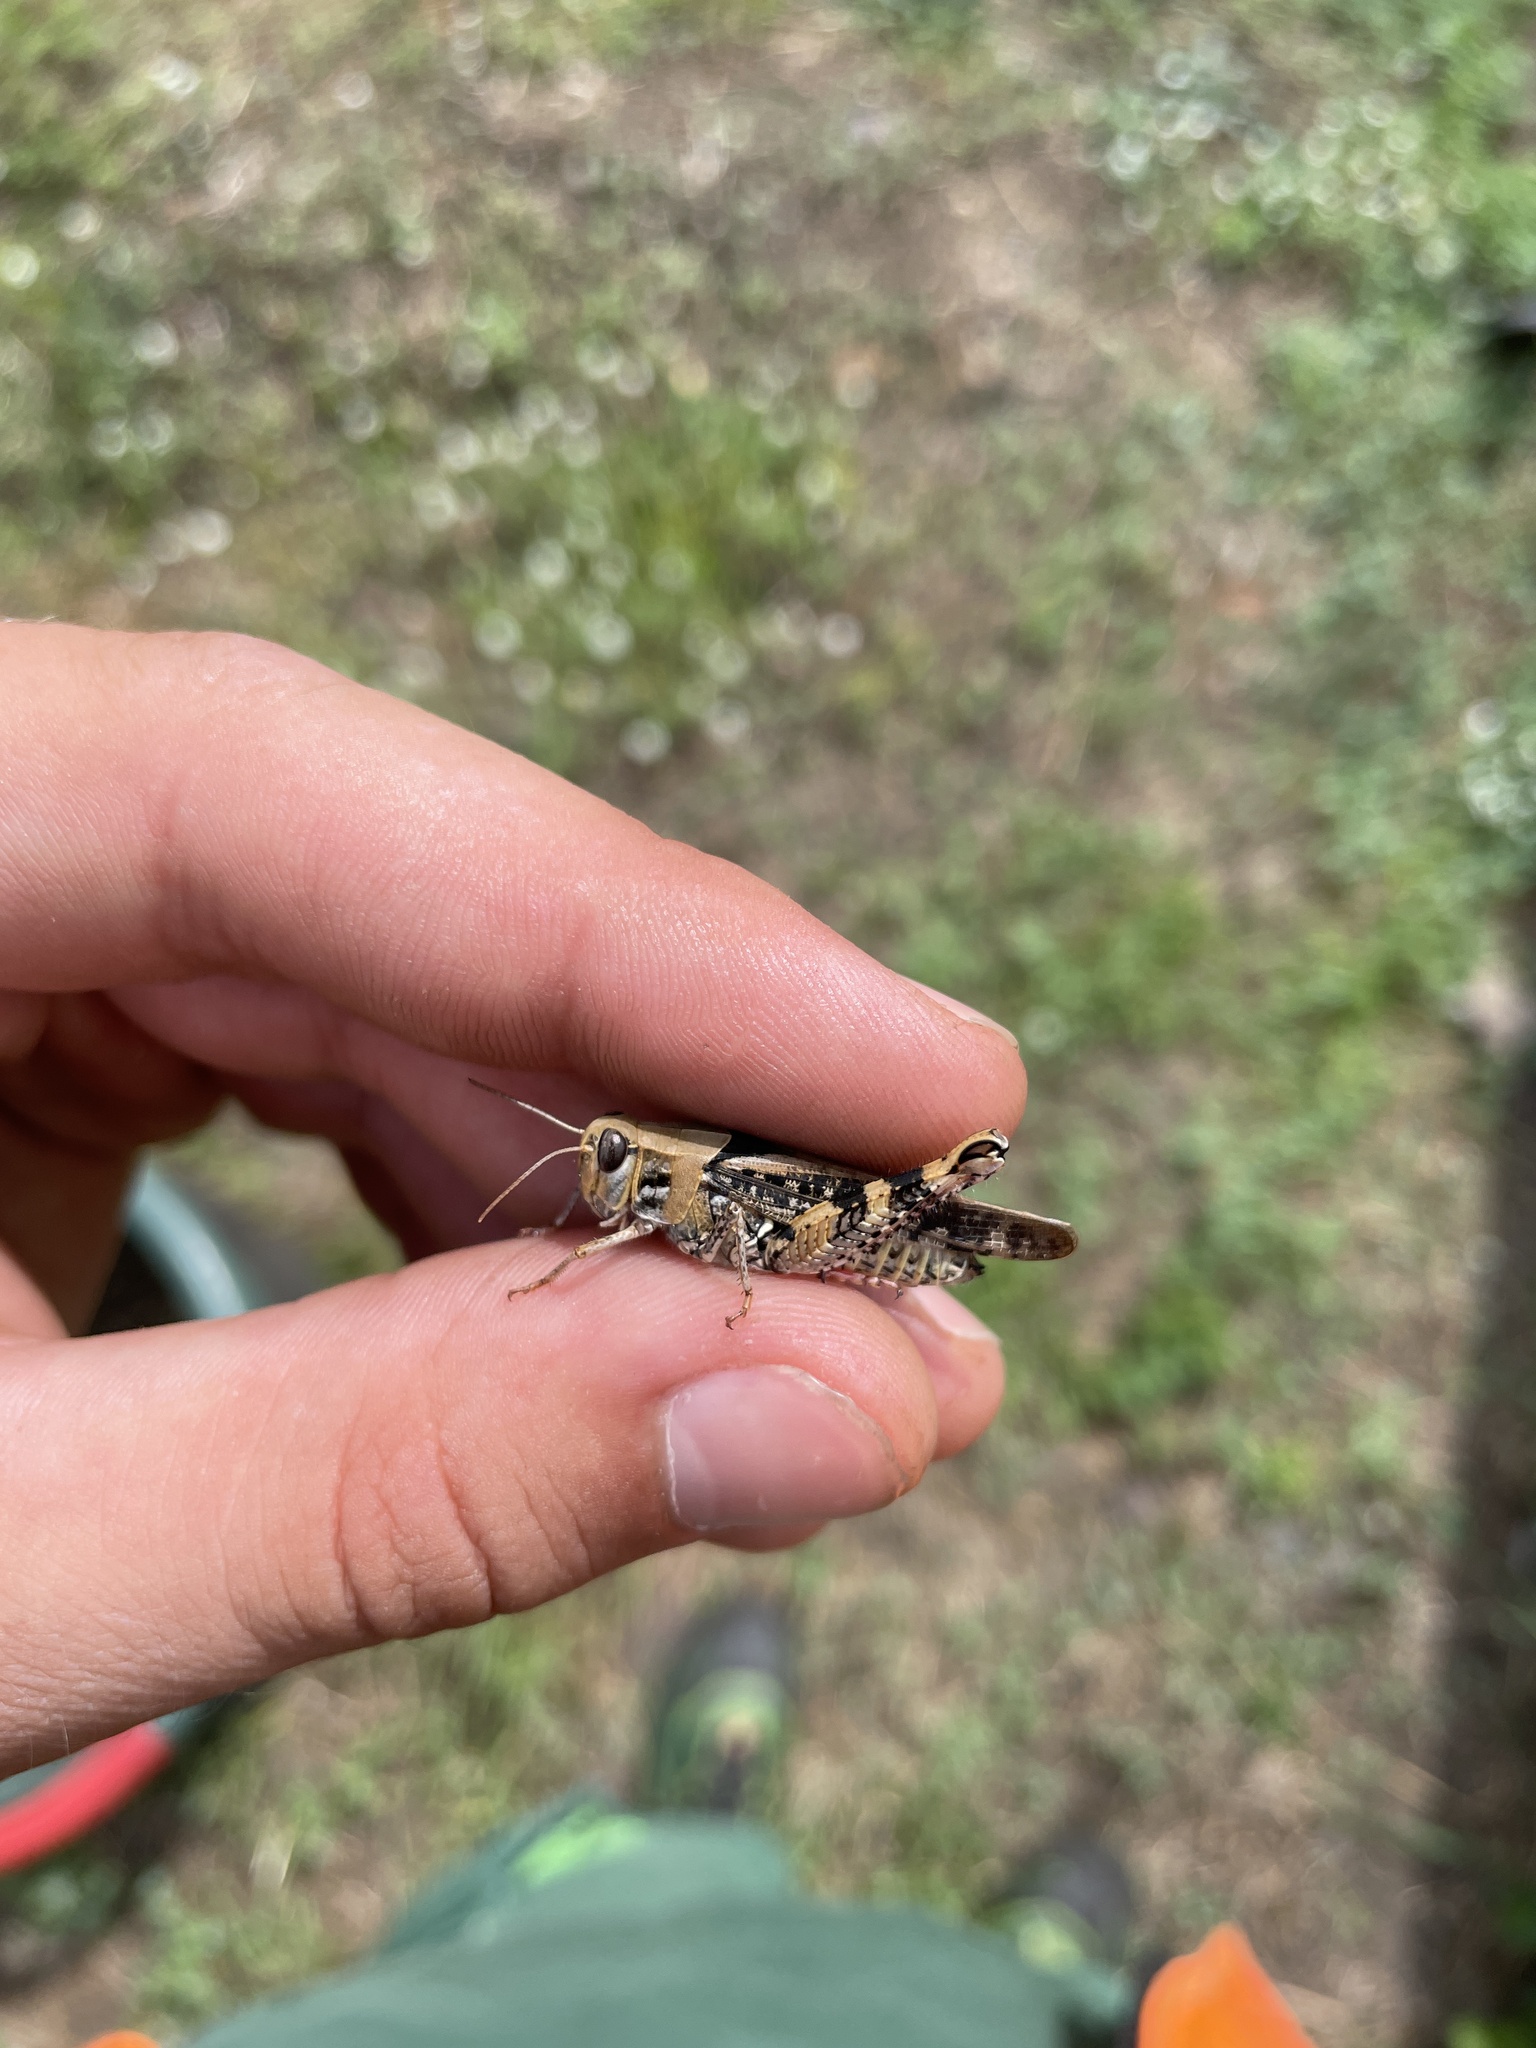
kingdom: Animalia
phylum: Arthropoda
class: Insecta
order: Orthoptera
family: Acrididae
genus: Calliptamus
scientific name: Calliptamus italicus
